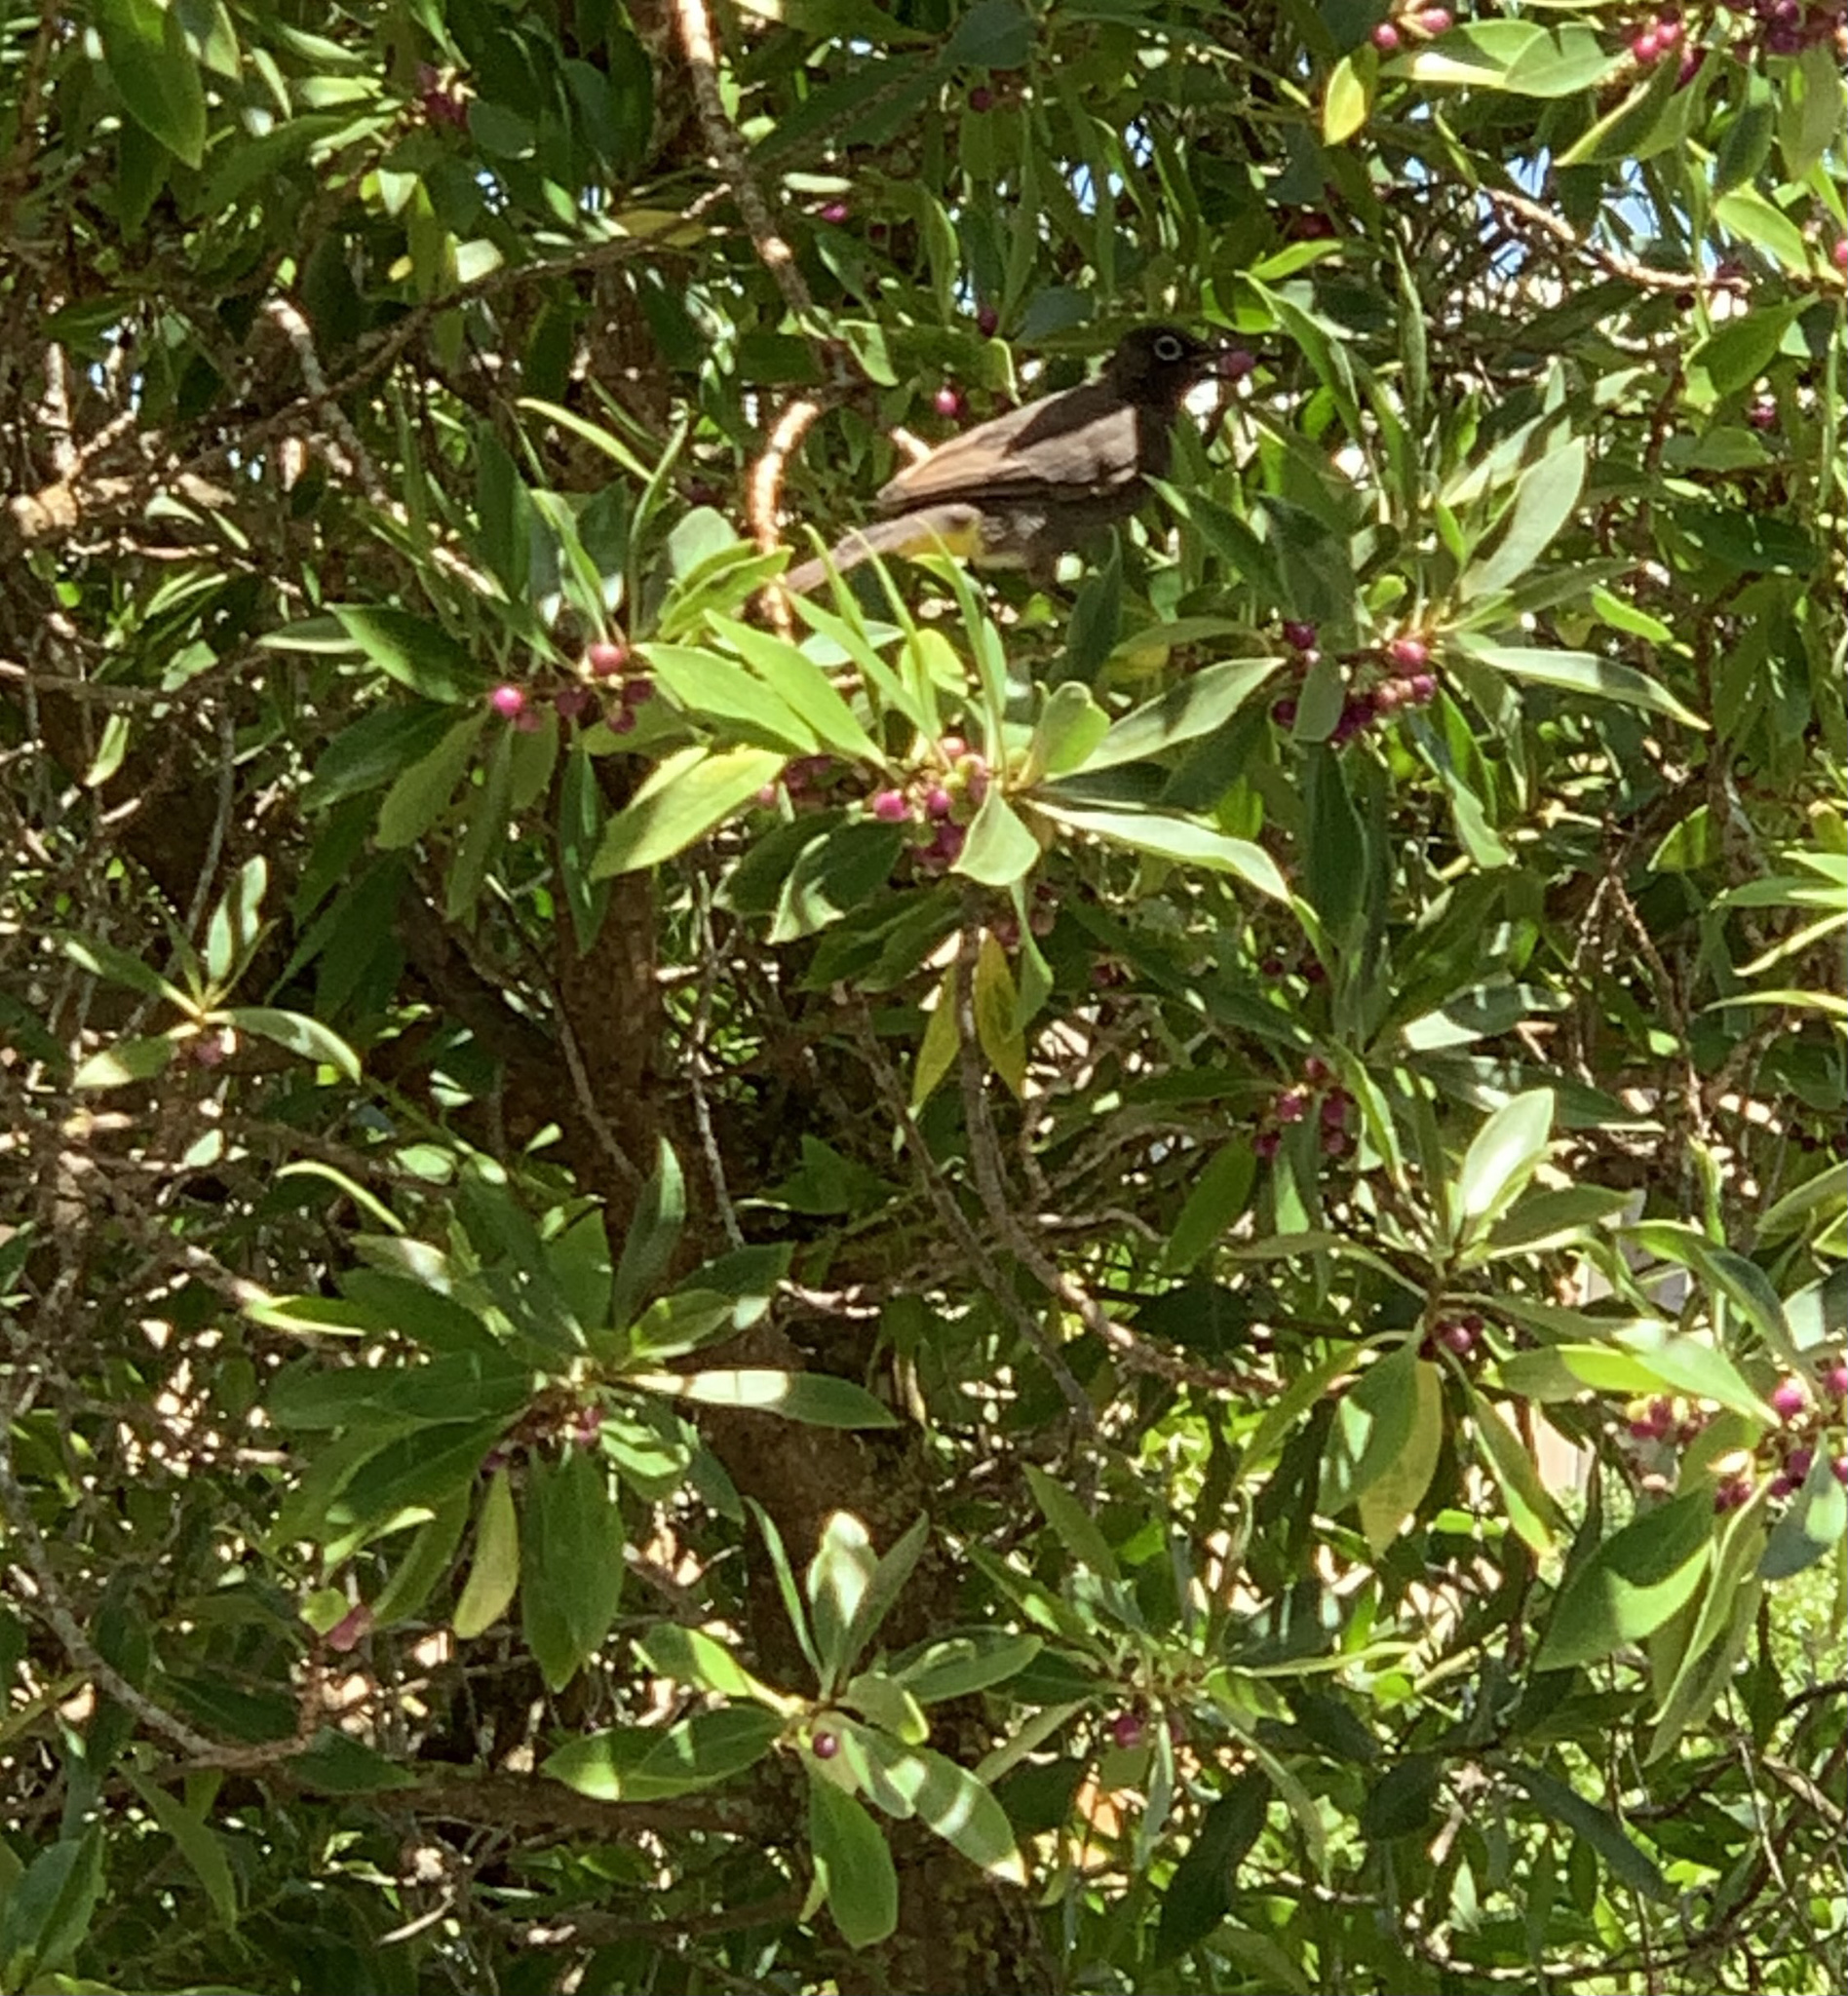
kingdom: Animalia
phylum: Chordata
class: Aves
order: Passeriformes
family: Pycnonotidae
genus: Pycnonotus
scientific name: Pycnonotus capensis
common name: Cape bulbul
